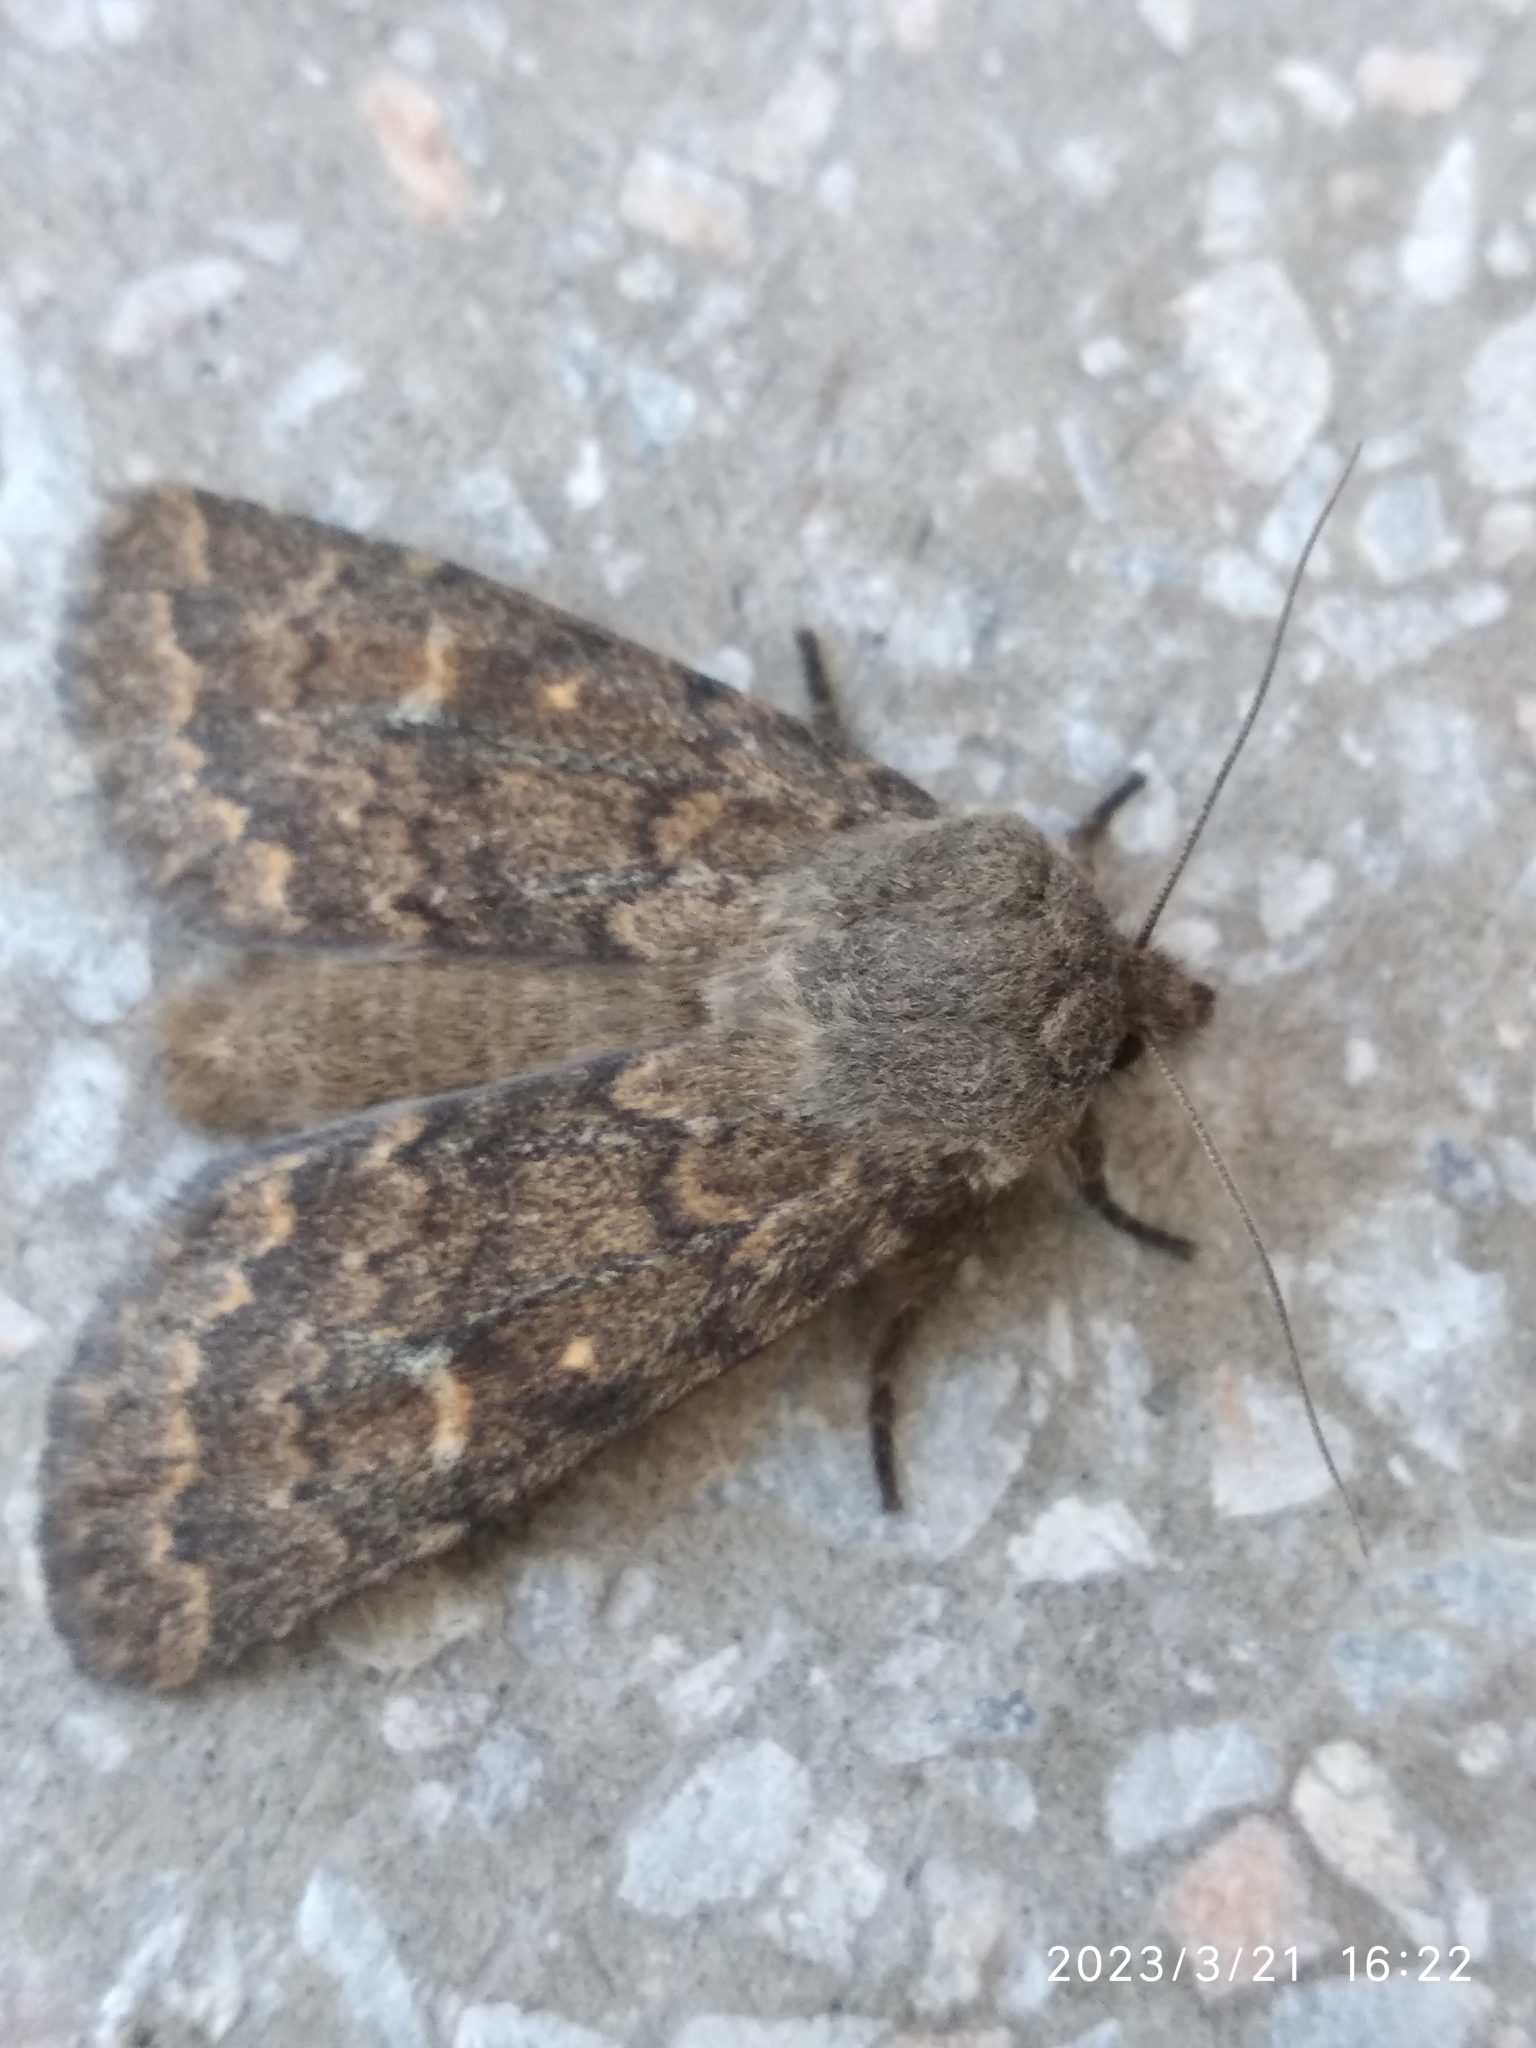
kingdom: Animalia
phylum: Arthropoda
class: Insecta
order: Lepidoptera
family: Noctuidae
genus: Dasypolia
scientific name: Dasypolia templi
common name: Brindled ochre
